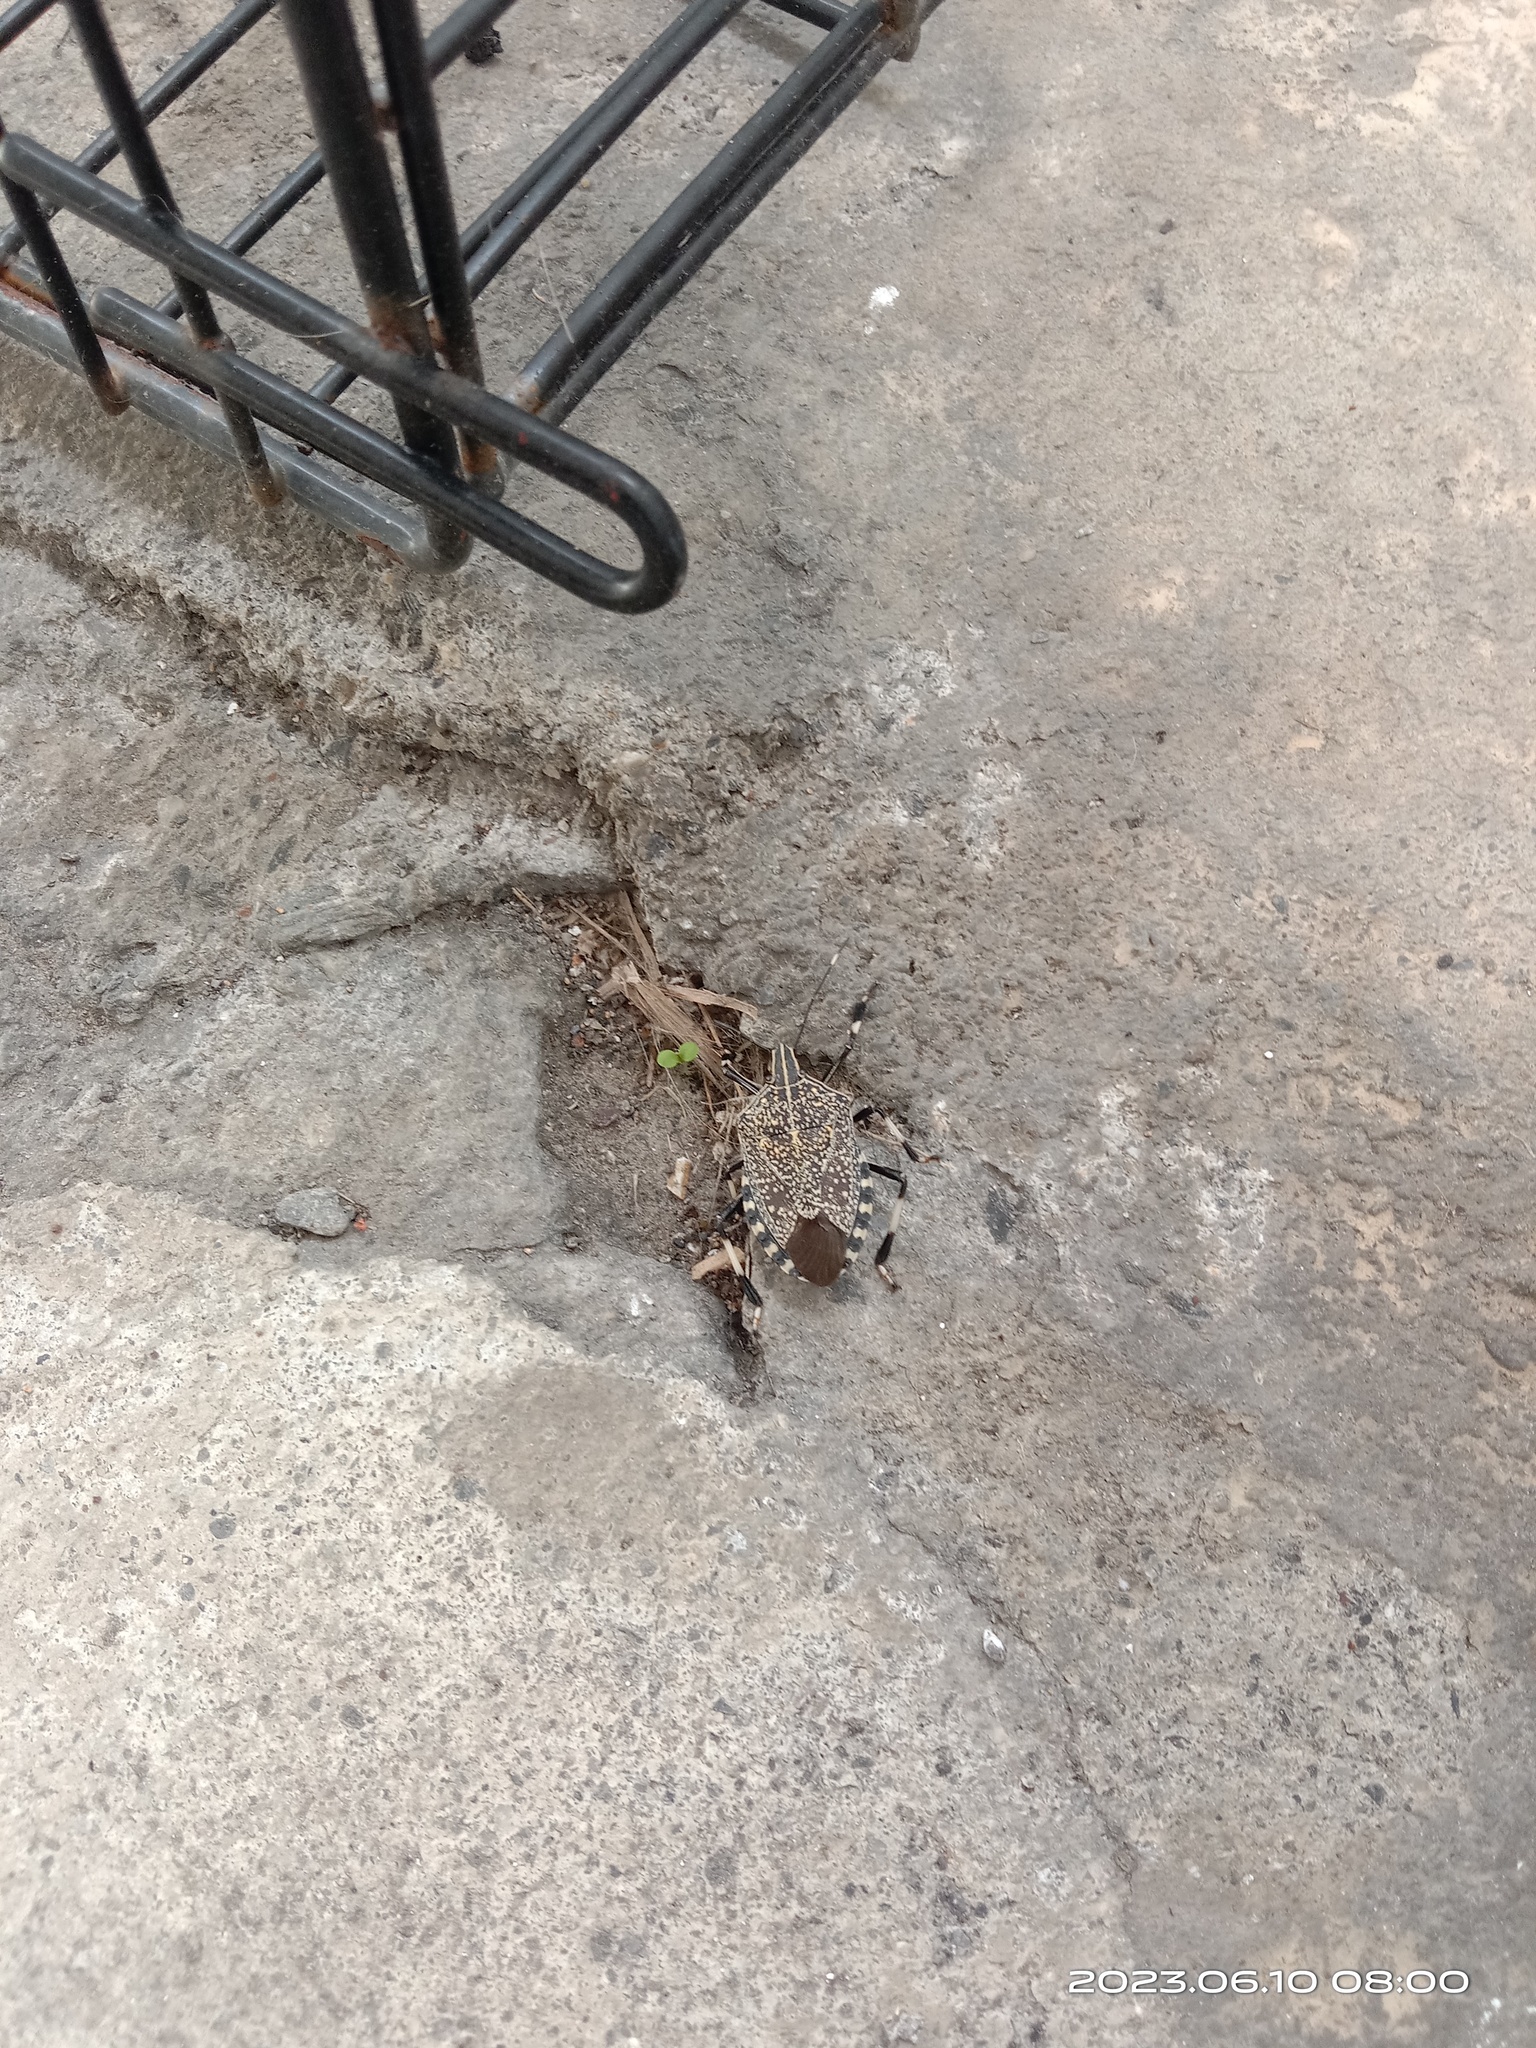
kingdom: Animalia
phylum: Arthropoda
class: Insecta
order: Hemiptera
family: Pentatomidae
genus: Erthesina
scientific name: Erthesina fullo
